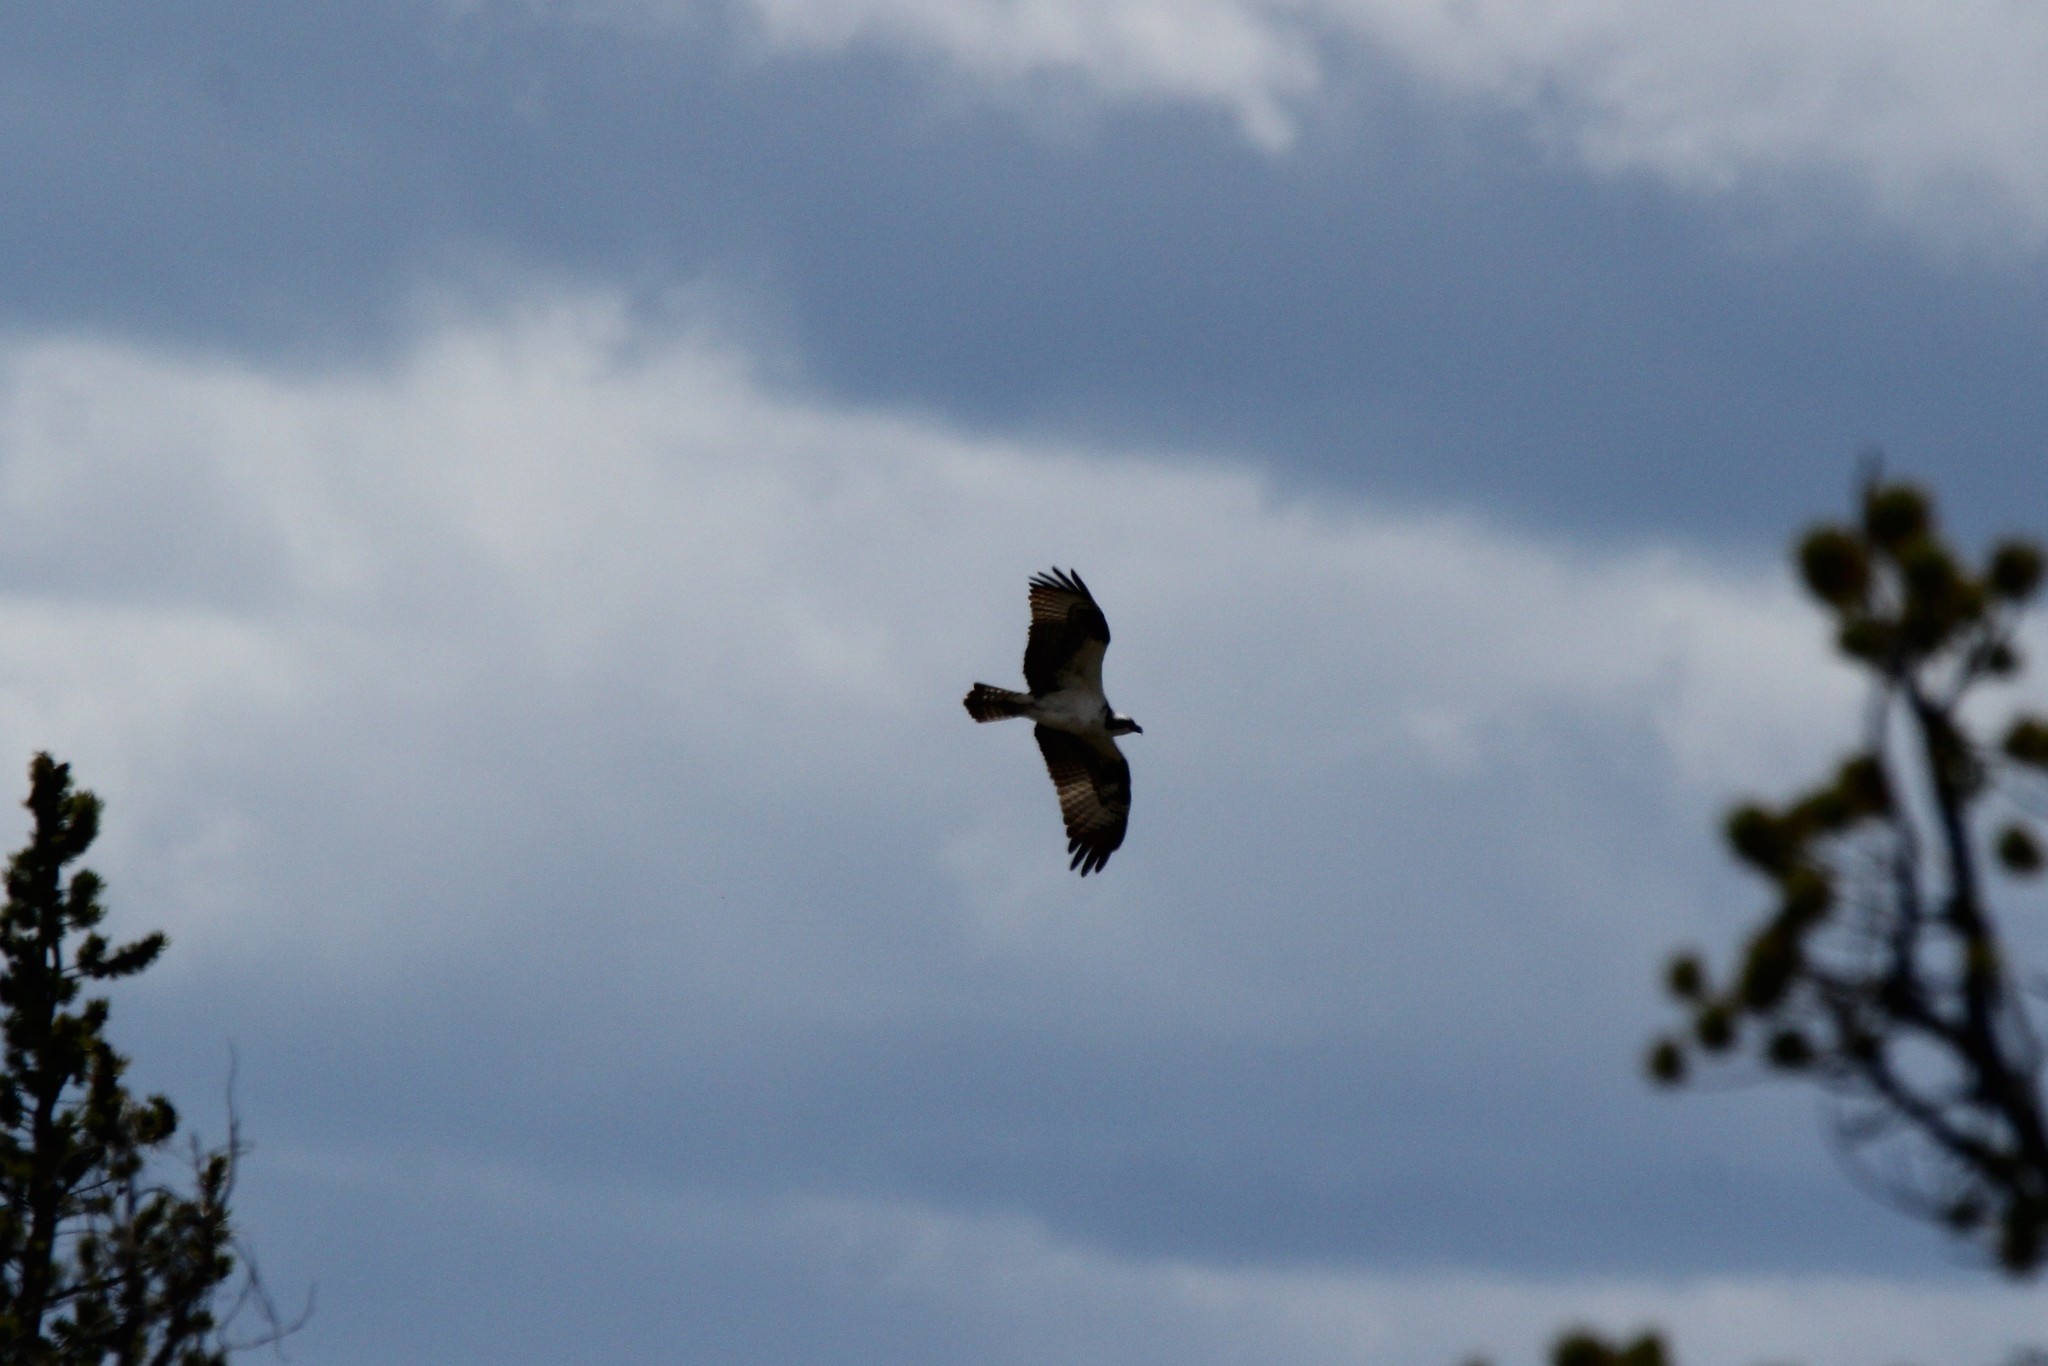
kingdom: Animalia
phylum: Chordata
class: Aves
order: Accipitriformes
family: Pandionidae
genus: Pandion
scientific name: Pandion haliaetus
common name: Osprey
